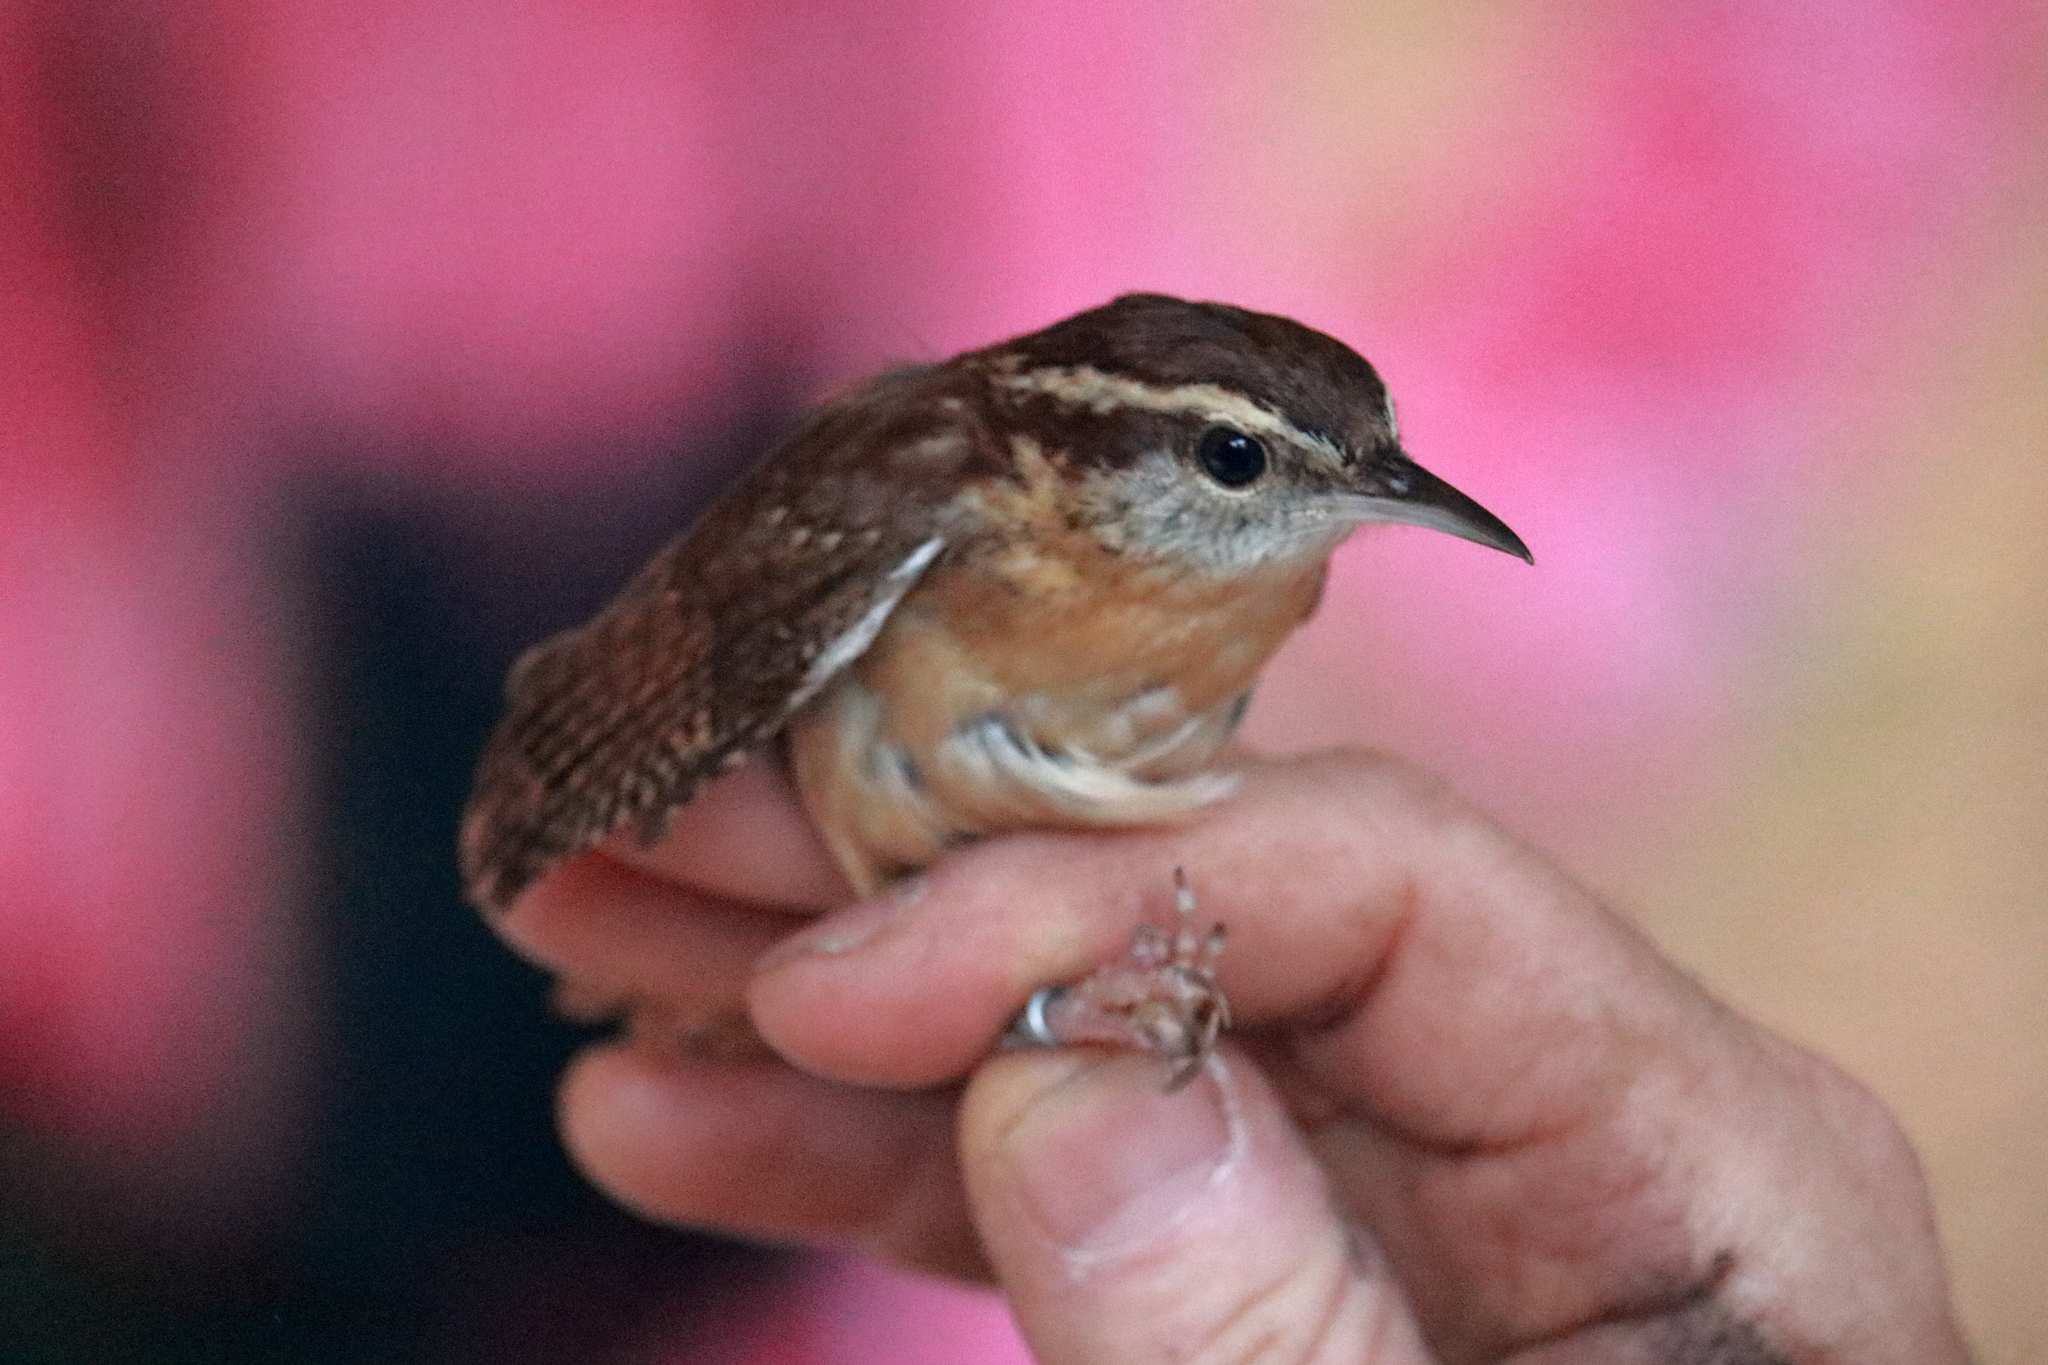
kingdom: Animalia
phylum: Chordata
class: Aves
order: Passeriformes
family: Troglodytidae
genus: Thryothorus
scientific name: Thryothorus ludovicianus
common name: Carolina wren
